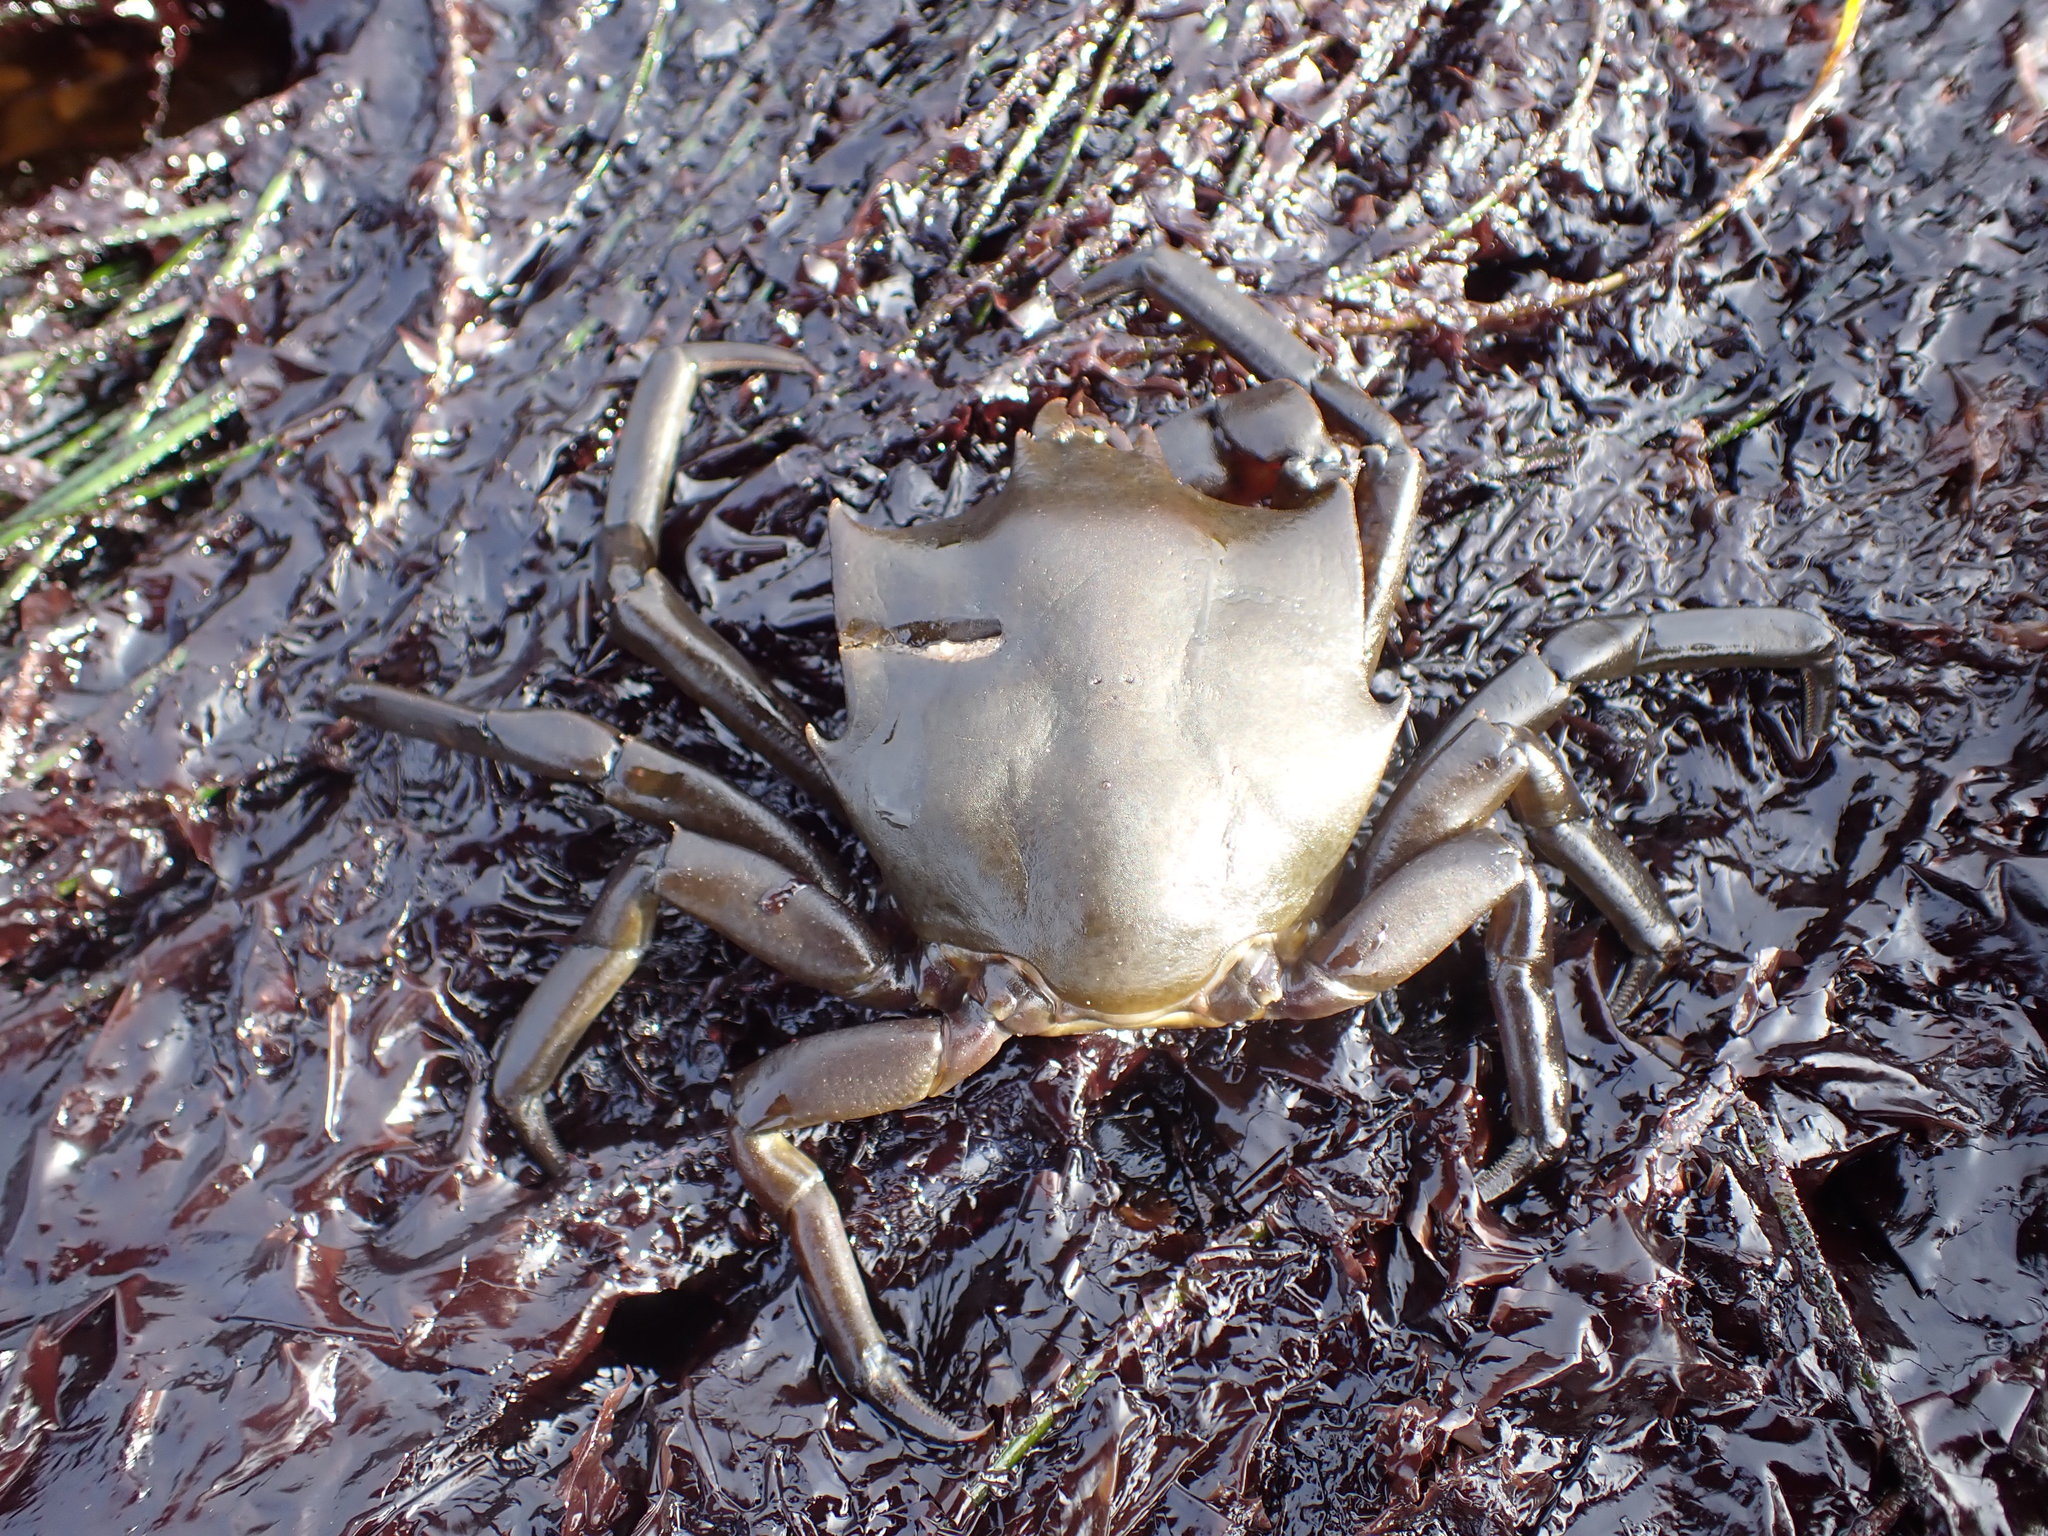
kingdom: Animalia
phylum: Arthropoda
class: Malacostraca
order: Decapoda
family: Epialtidae
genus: Pugettia
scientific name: Pugettia producta
